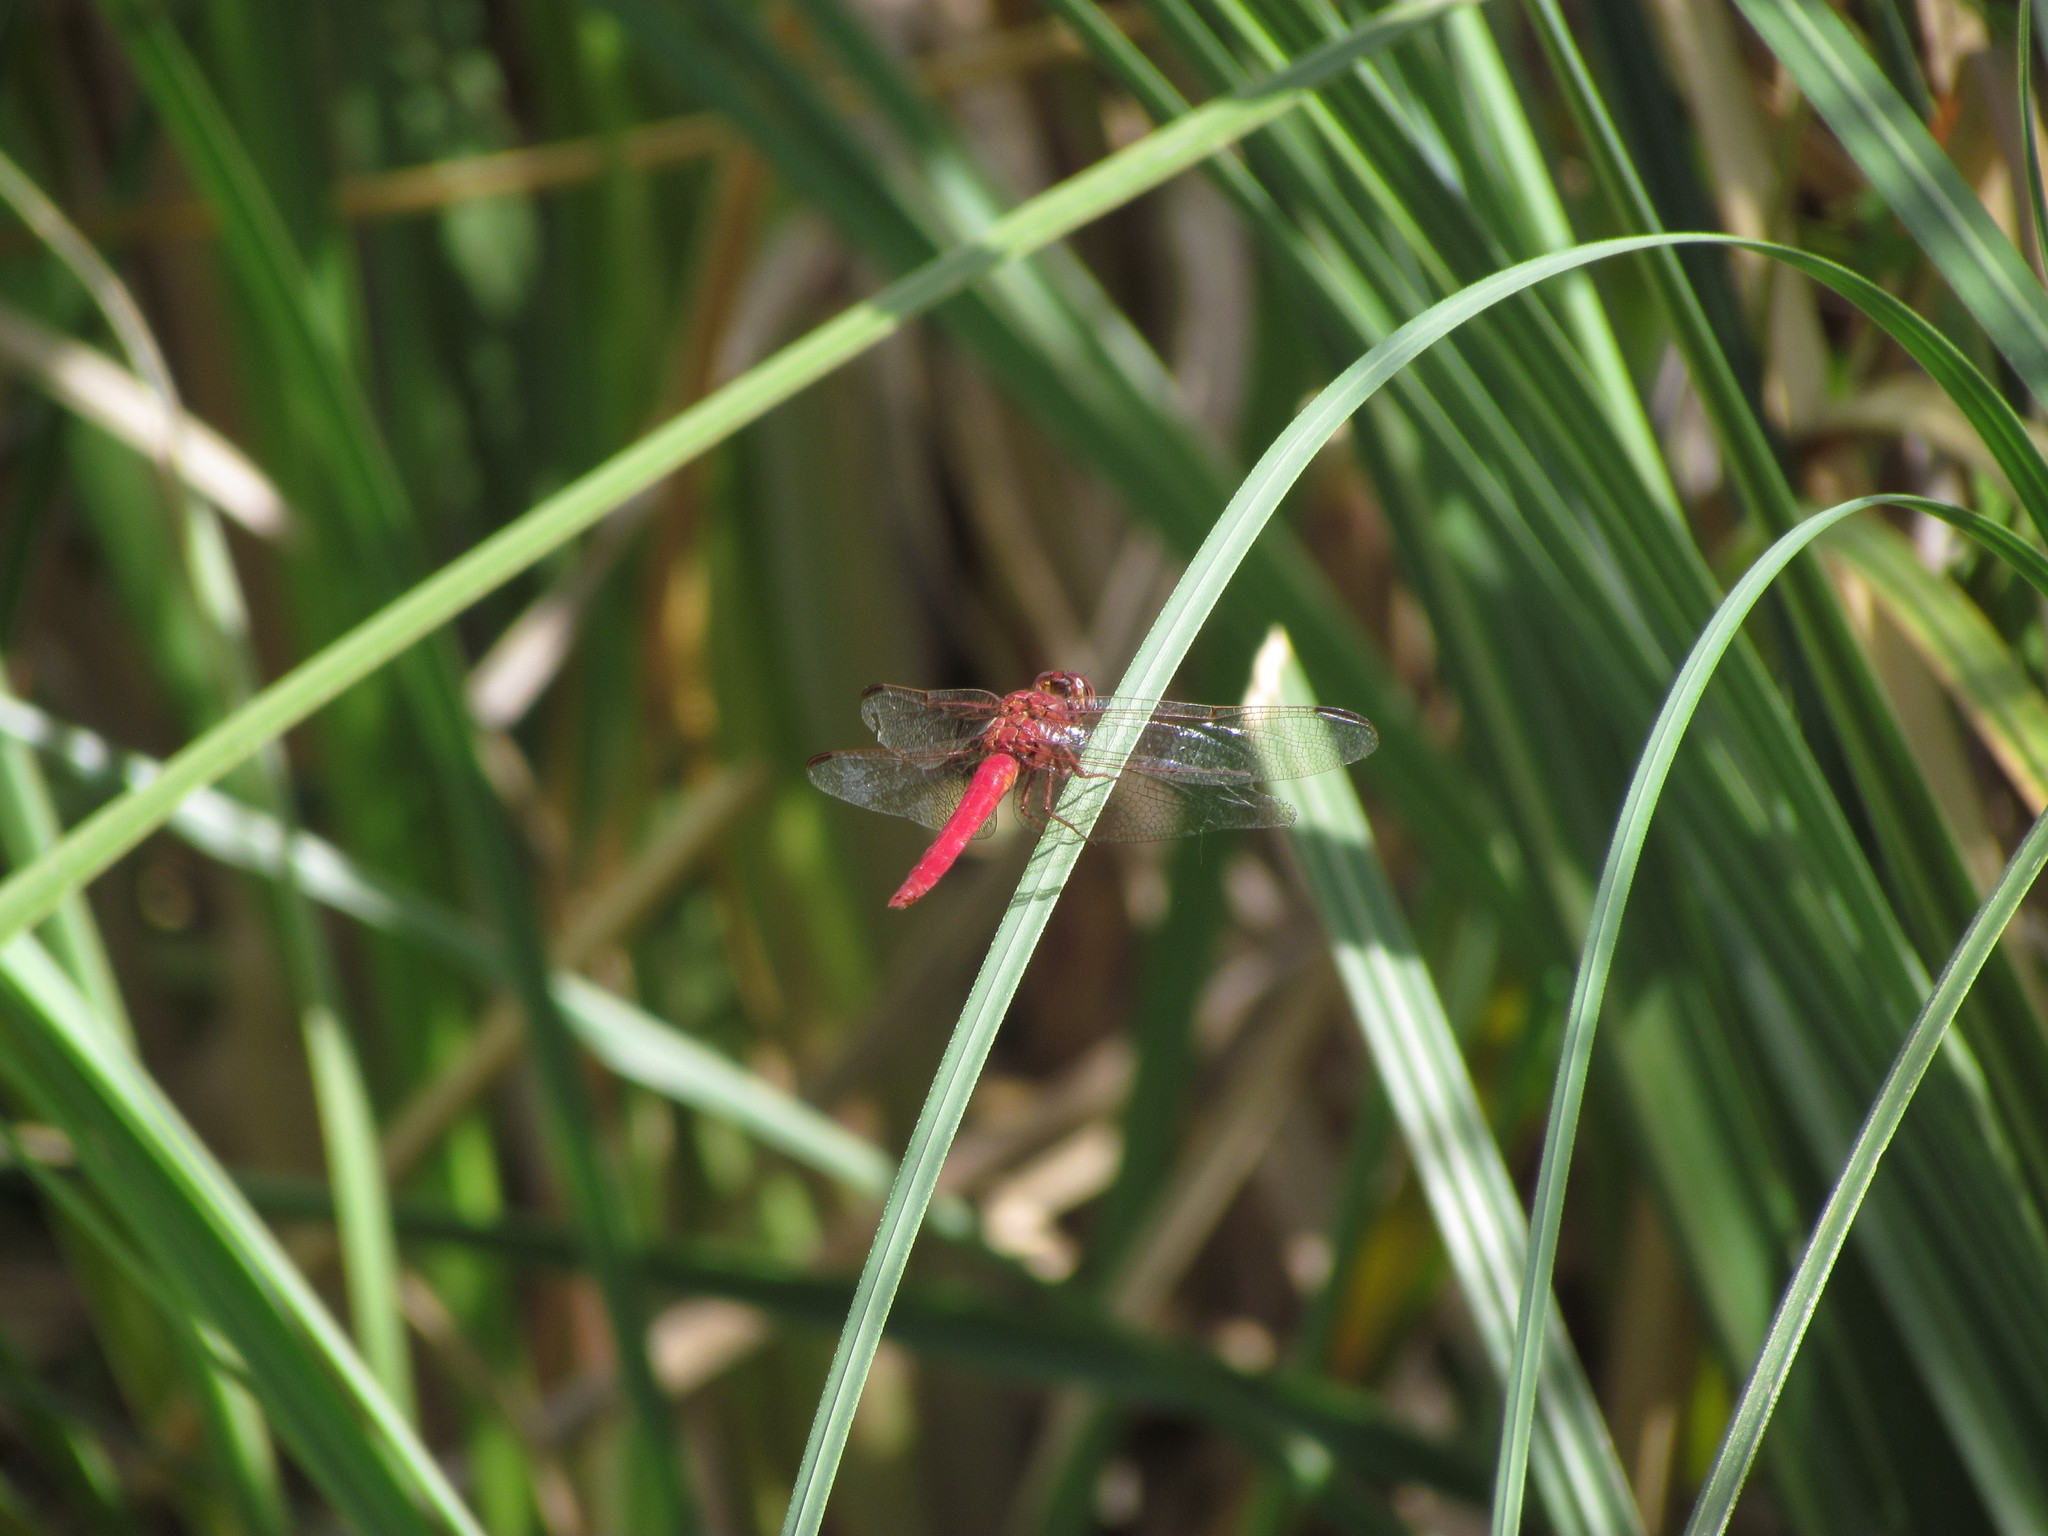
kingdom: Animalia
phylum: Arthropoda
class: Insecta
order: Odonata
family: Libellulidae
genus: Orthemis
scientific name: Orthemis nodiplaga
